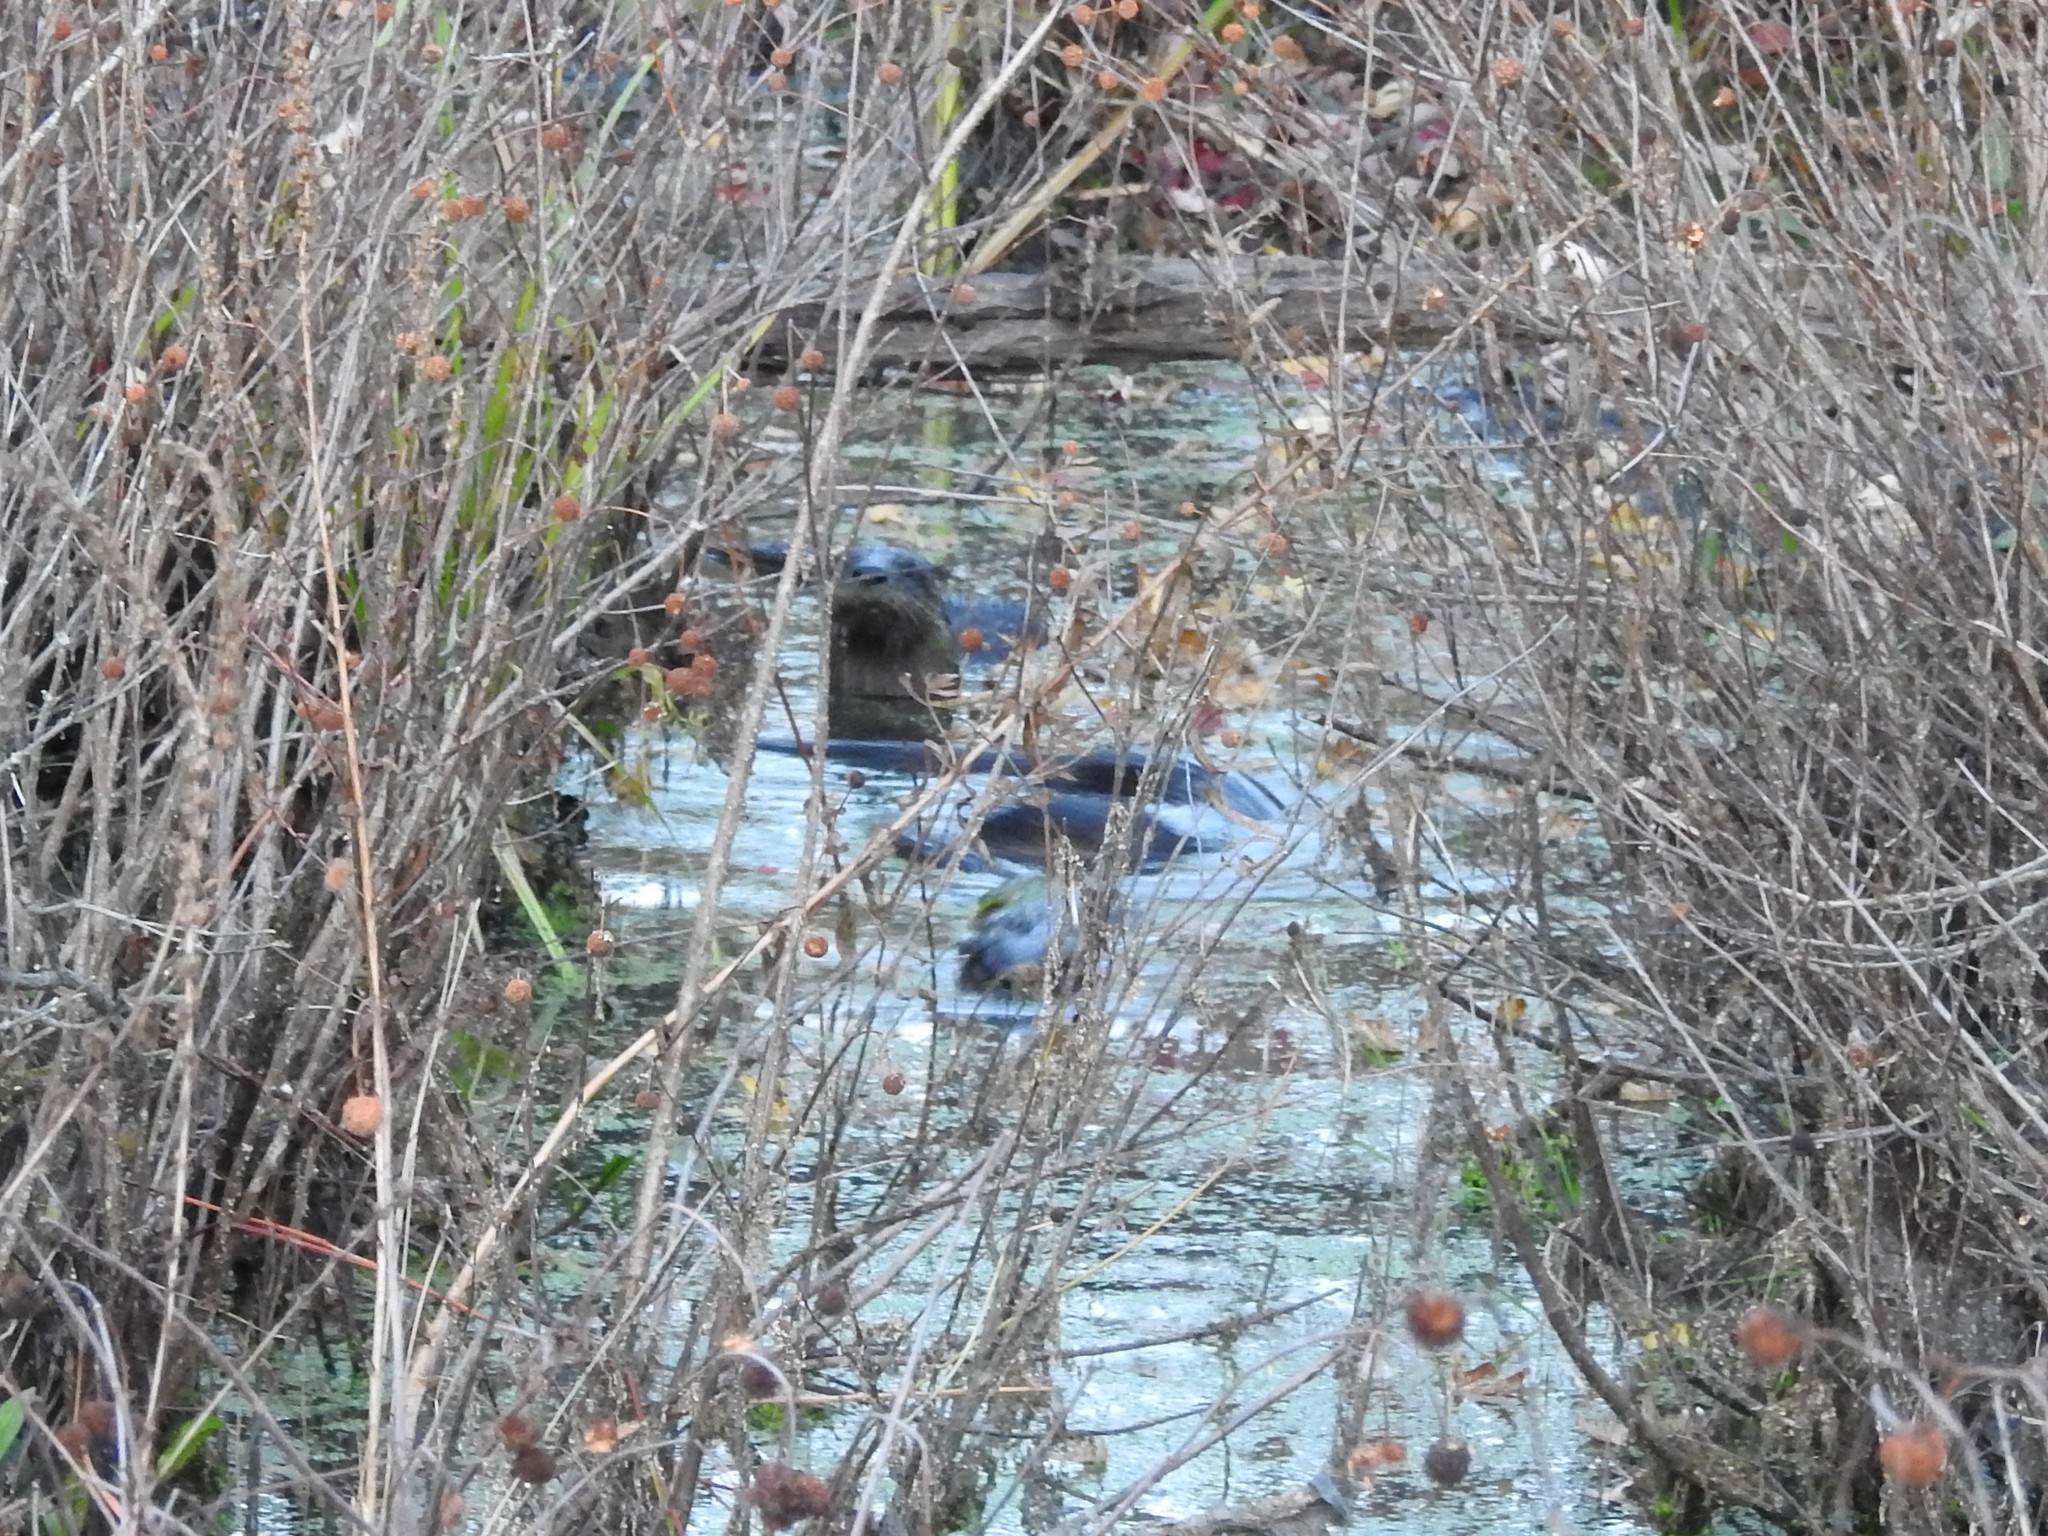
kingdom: Animalia
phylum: Chordata
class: Mammalia
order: Carnivora
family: Mustelidae
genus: Lontra
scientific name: Lontra canadensis
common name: North american river otter
